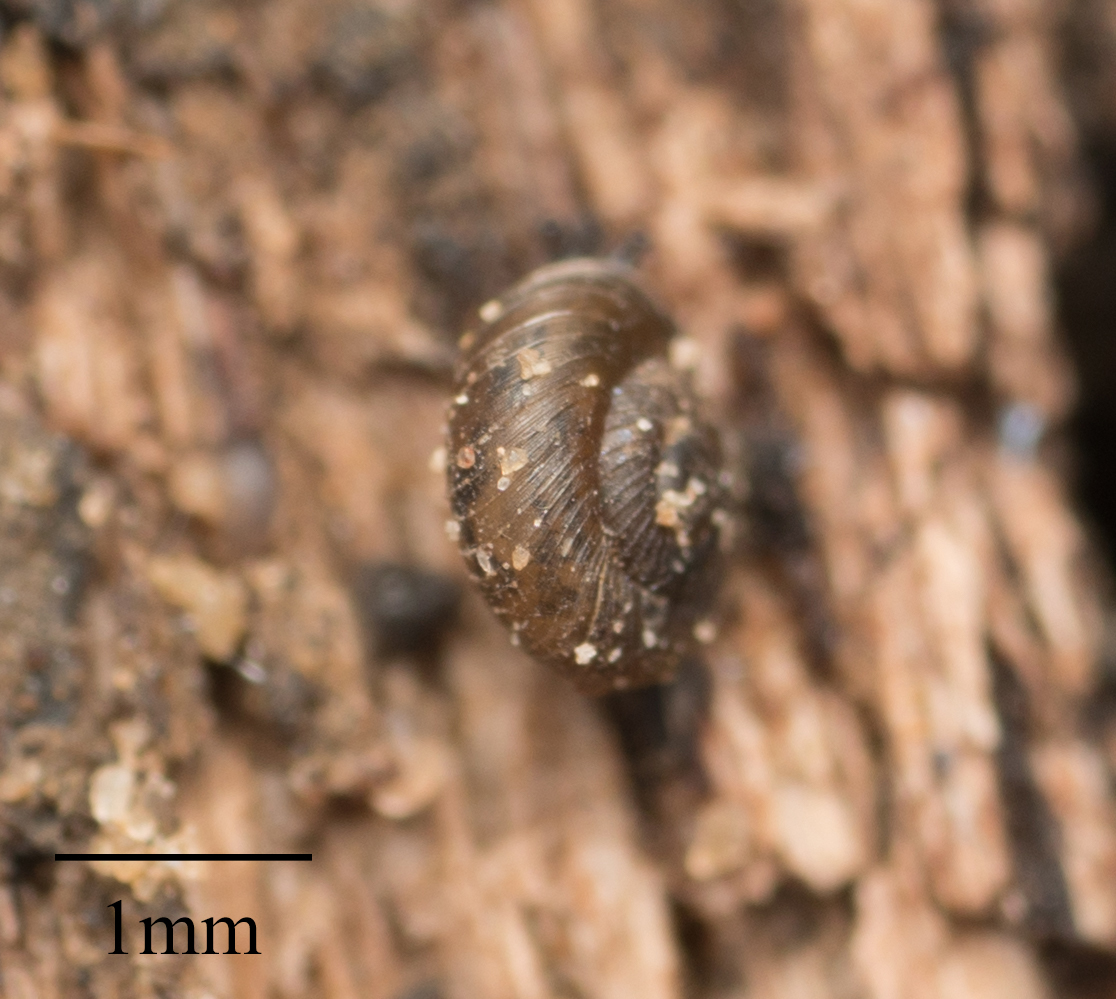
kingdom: Animalia
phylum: Mollusca
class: Gastropoda
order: Stylommatophora
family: Punctidae
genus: Paralaoma
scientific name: Paralaoma servilis
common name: Pinhead spot
